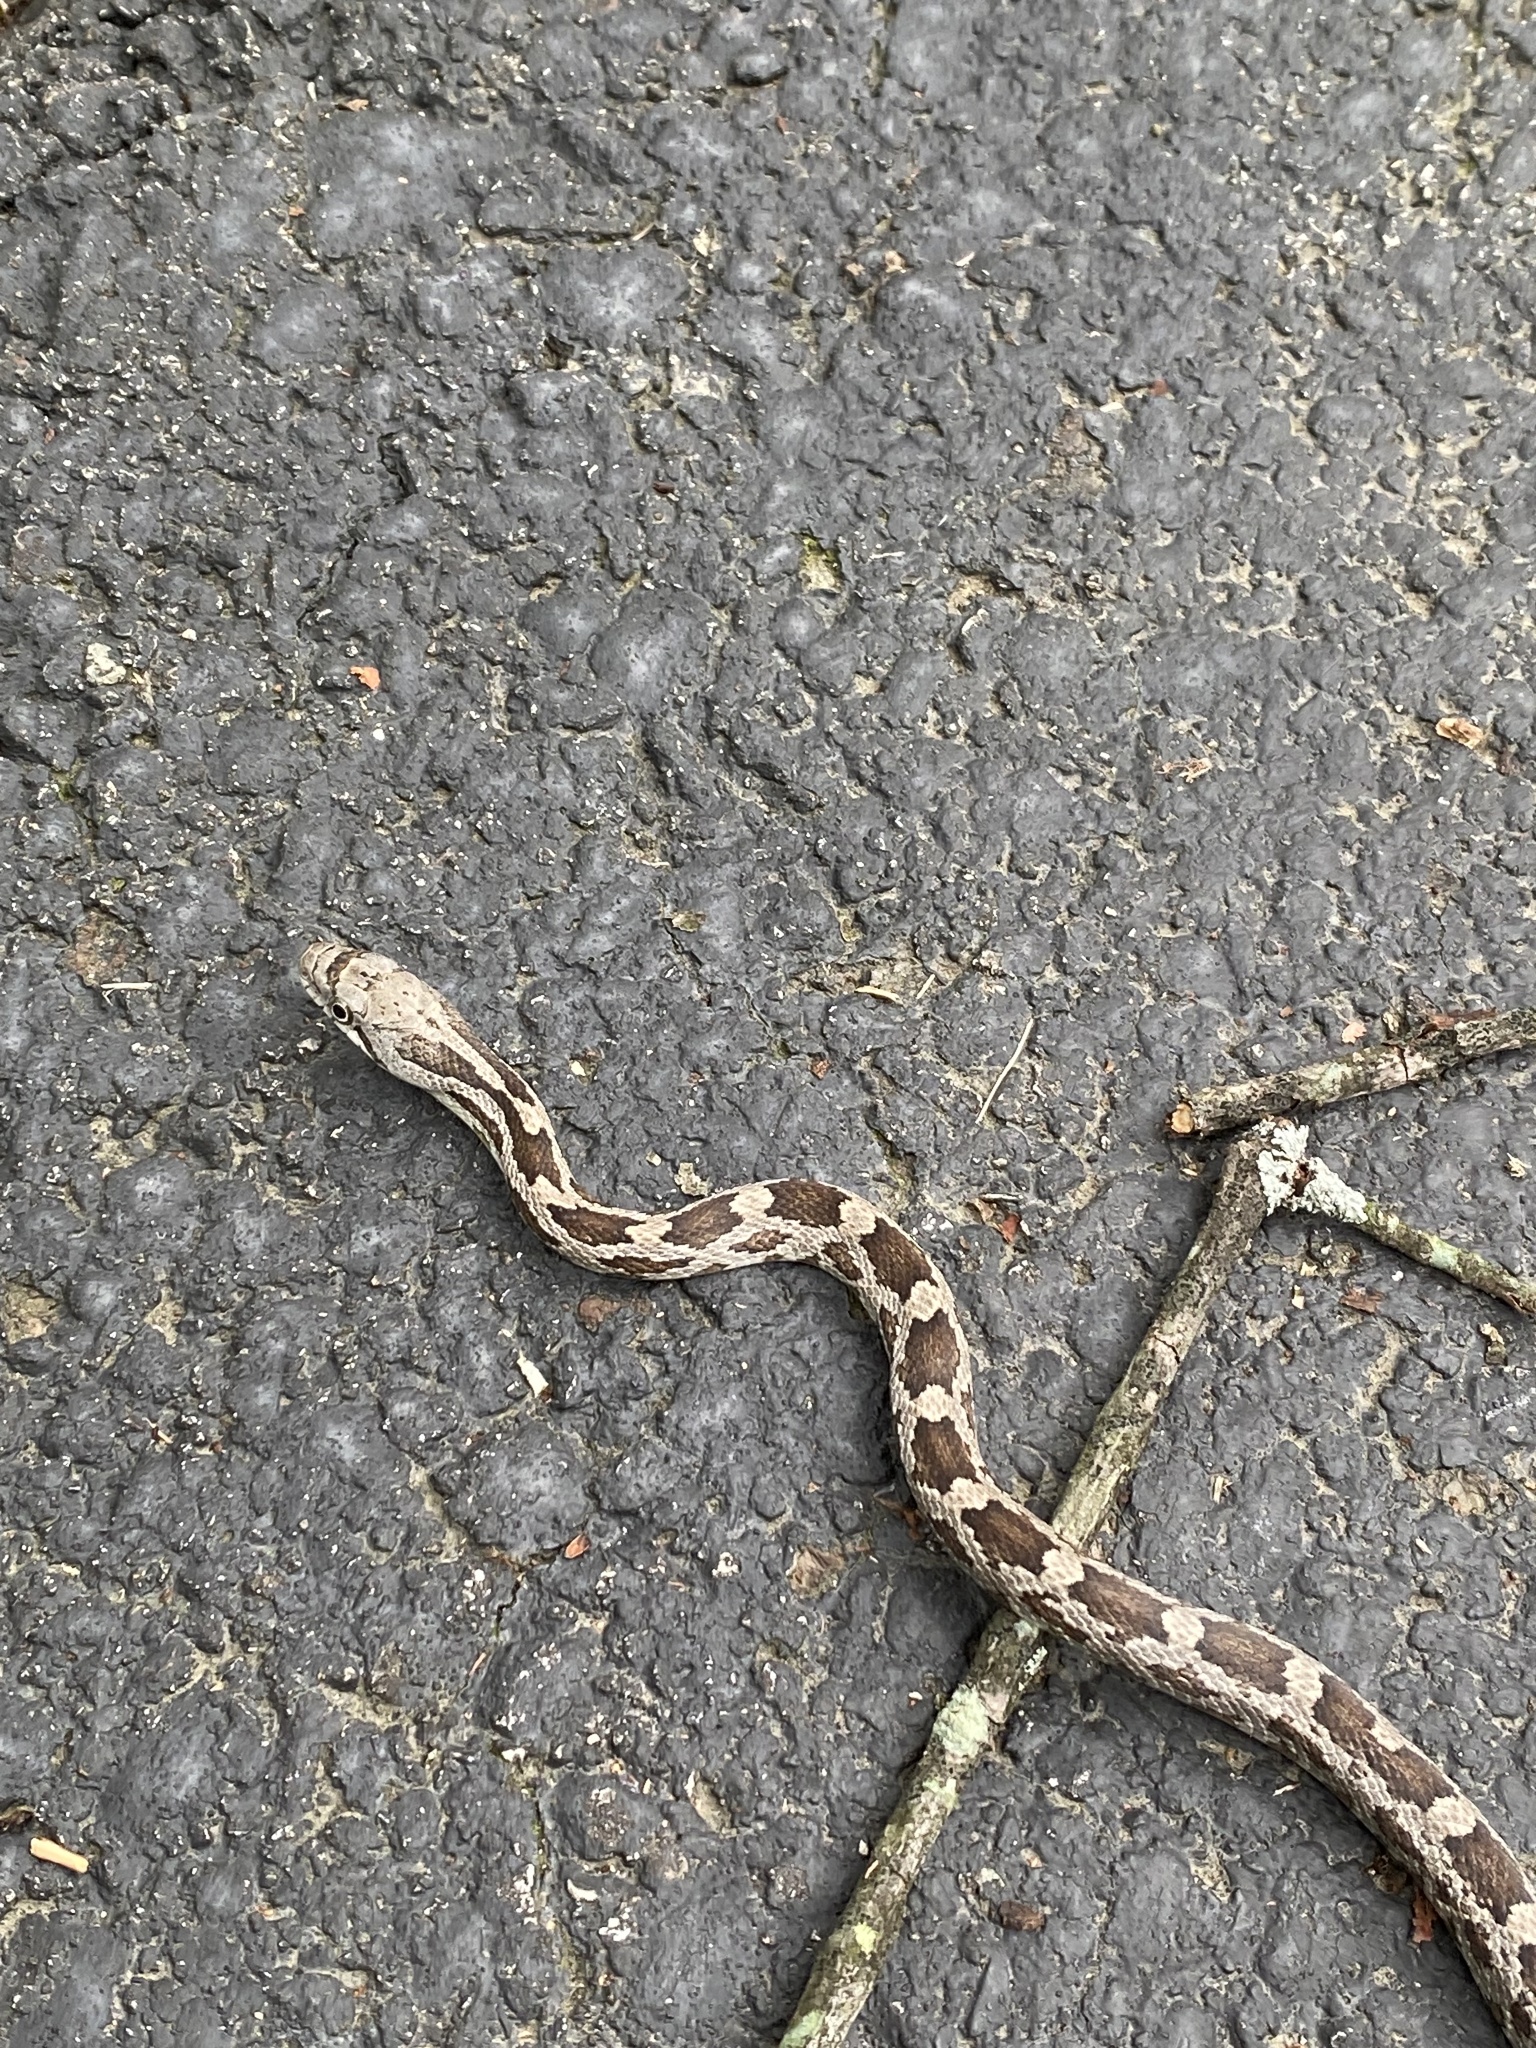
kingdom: Animalia
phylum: Chordata
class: Squamata
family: Colubridae
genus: Pantherophis
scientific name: Pantherophis spiloides
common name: Gray rat snake
